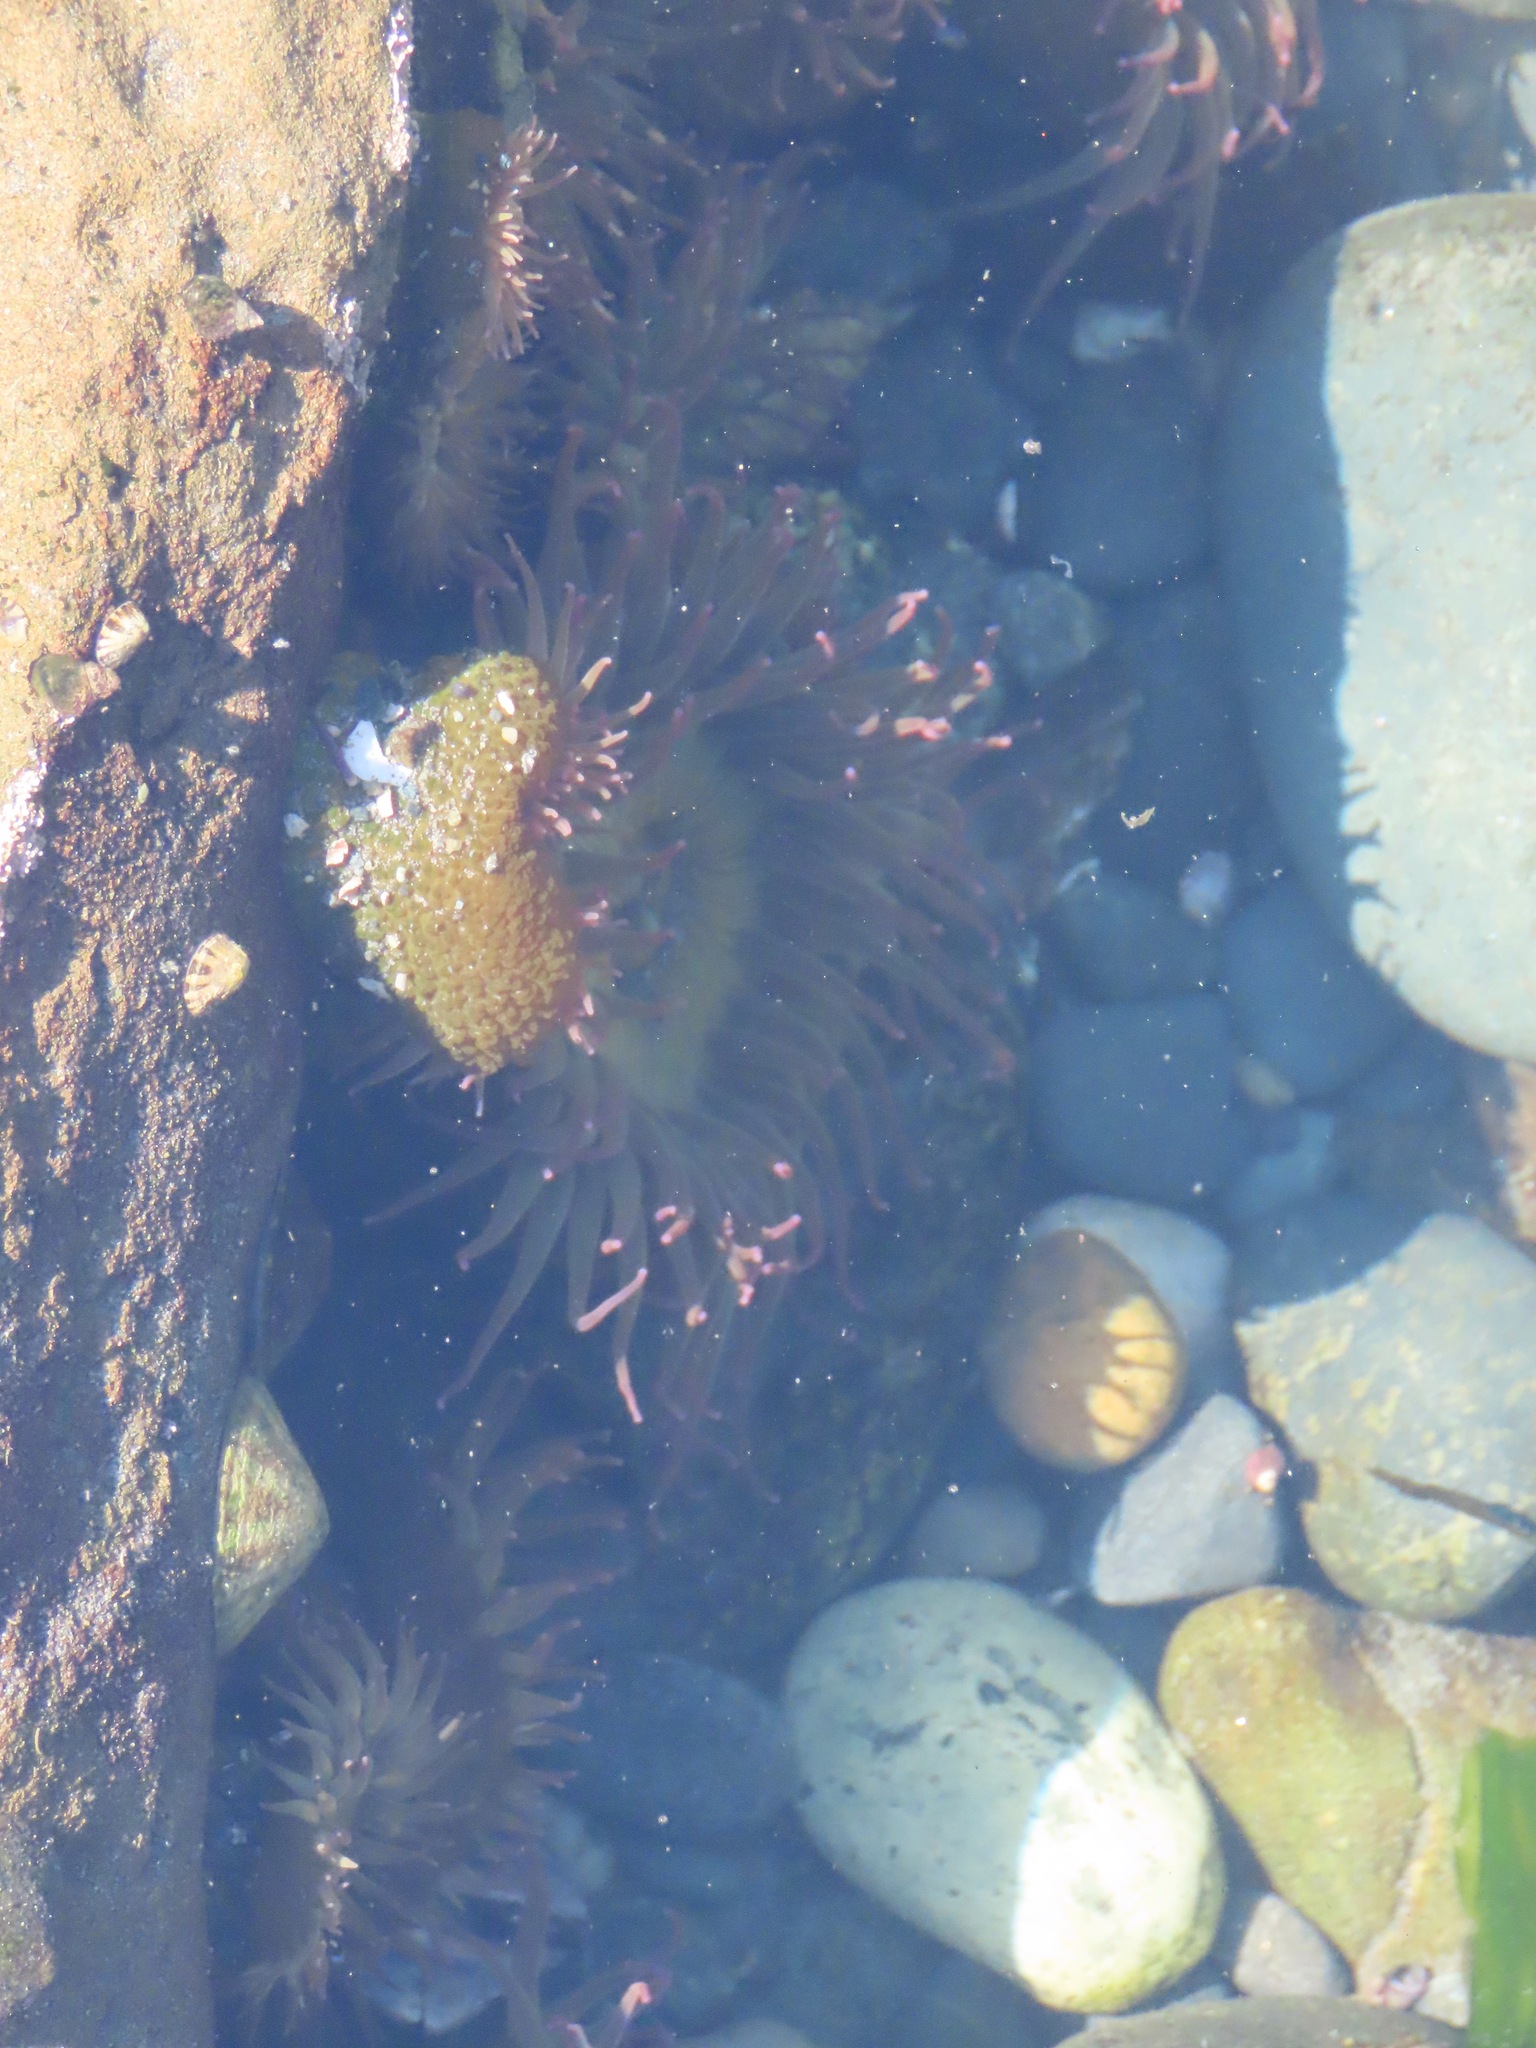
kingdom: Animalia
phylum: Cnidaria
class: Anthozoa
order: Actiniaria
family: Actiniidae
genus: Anthopleura
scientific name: Anthopleura elegantissima
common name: Clonal anemone
